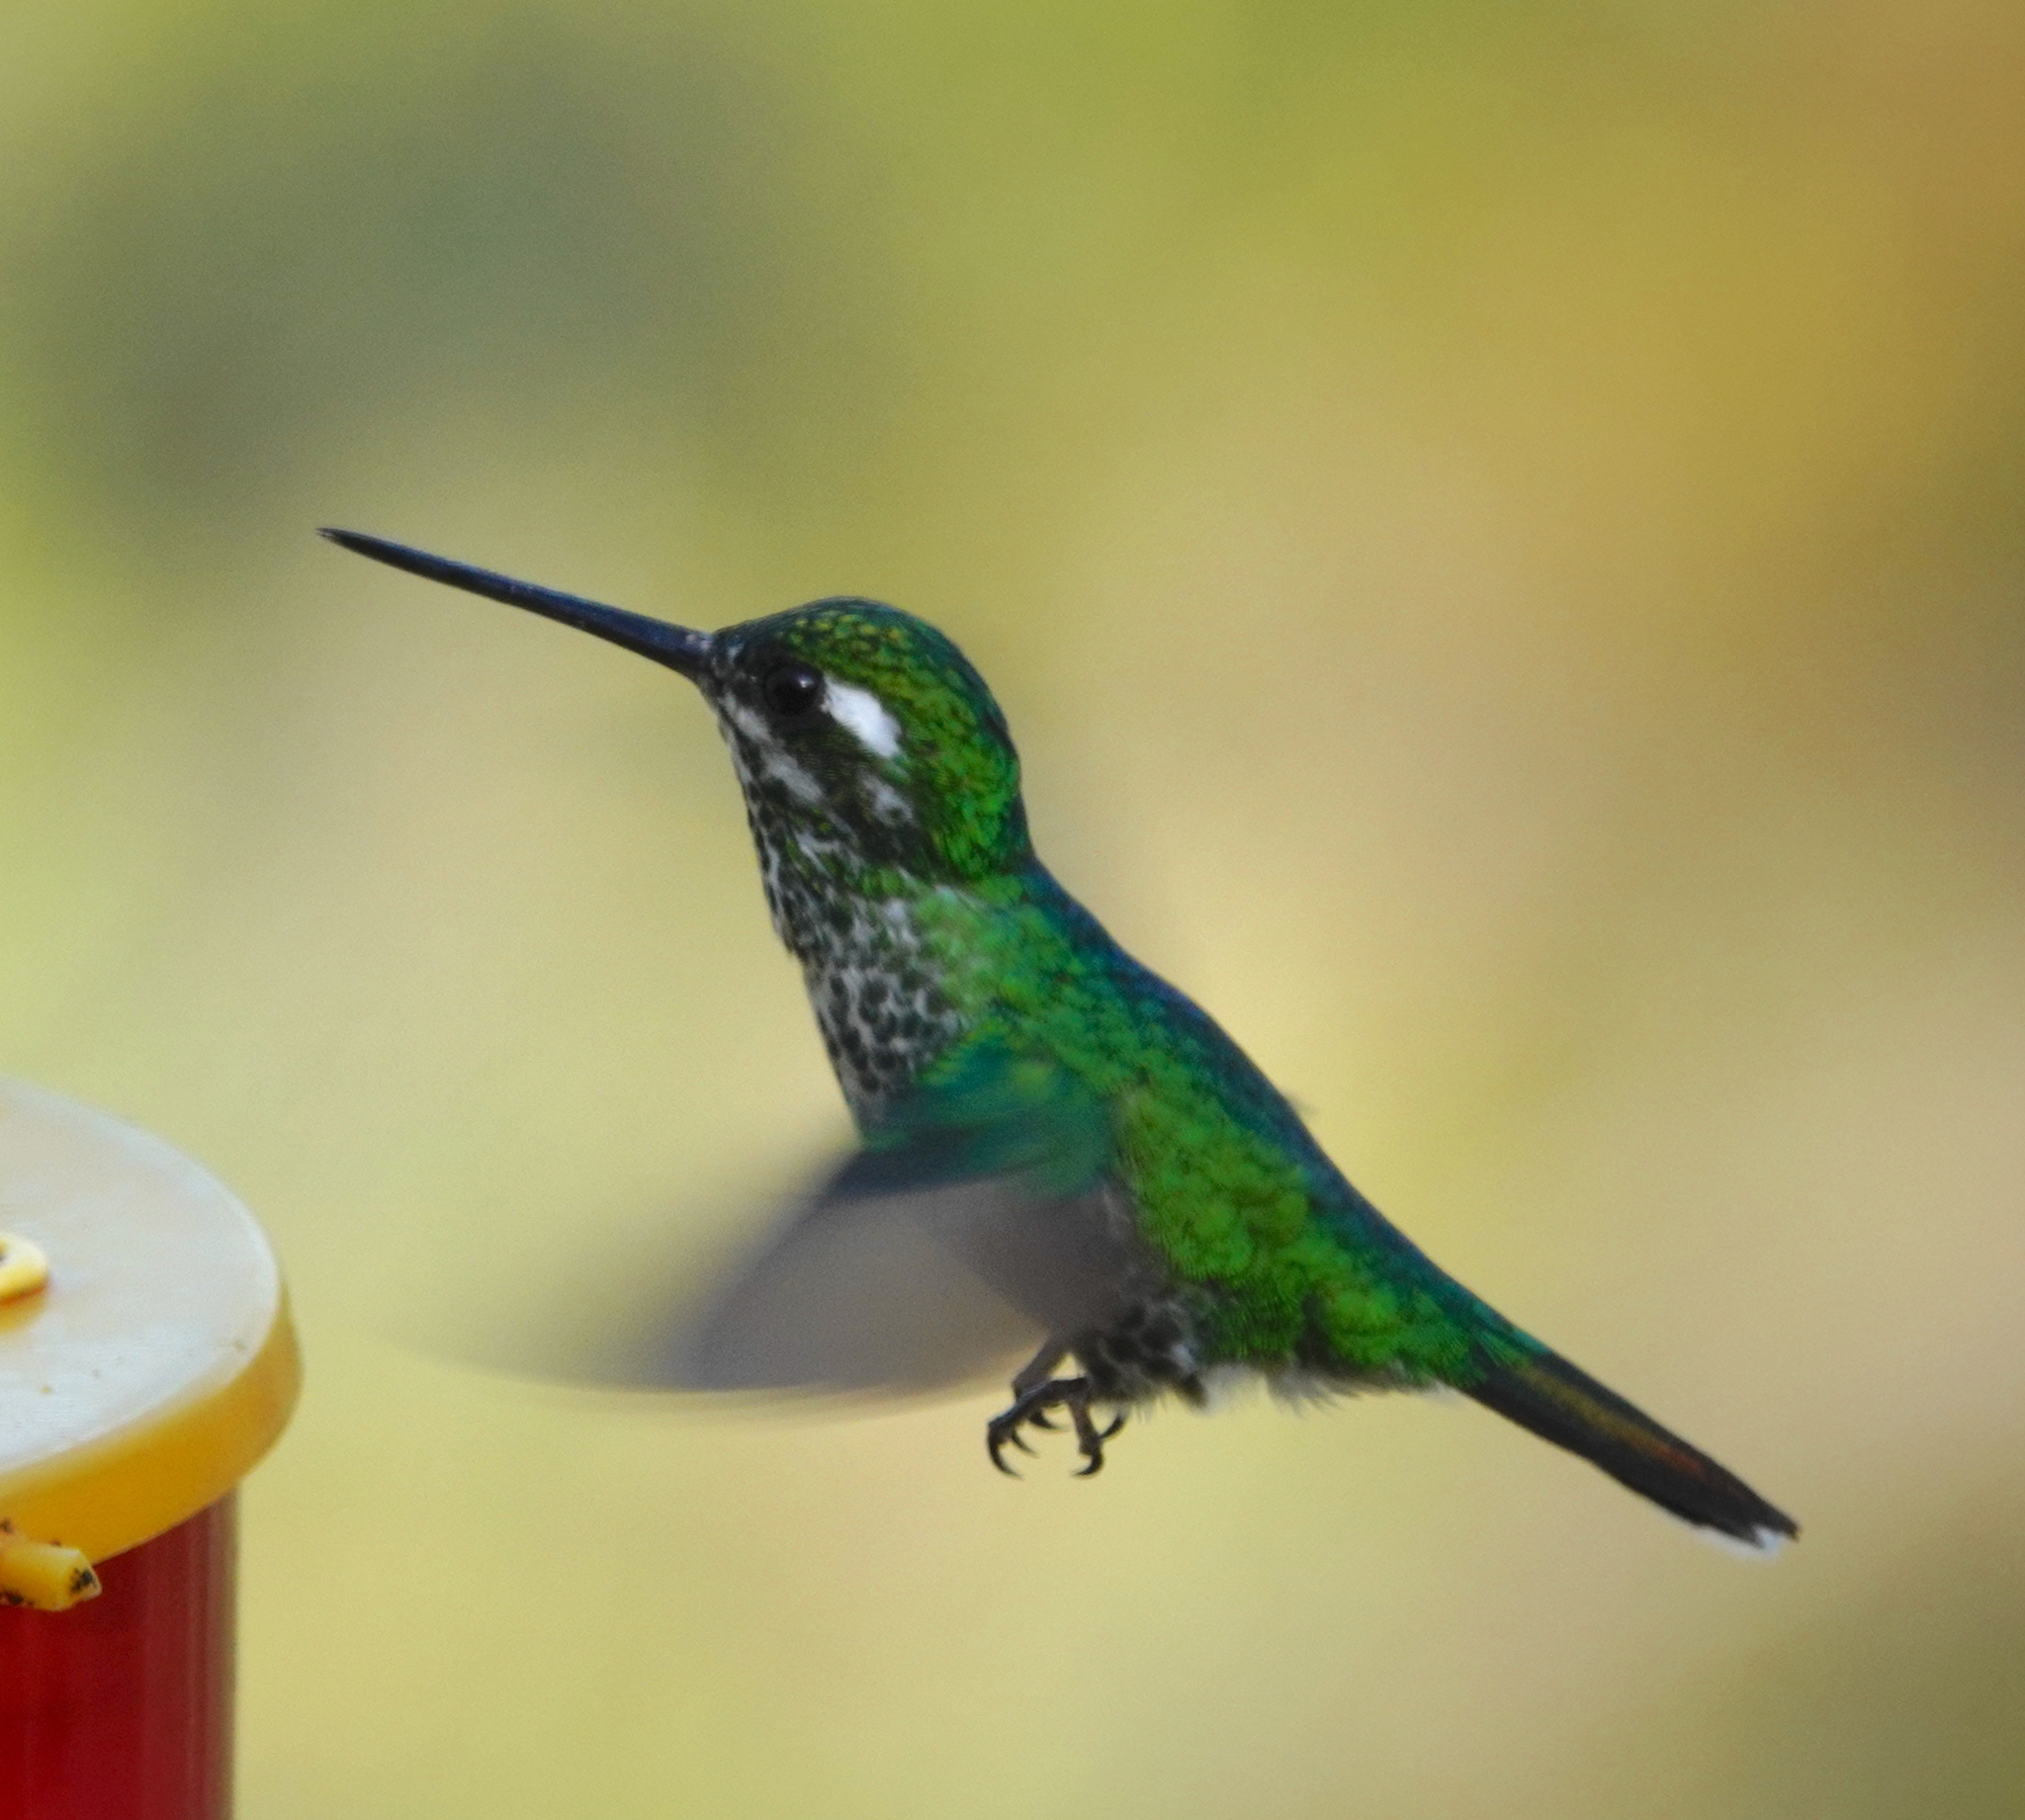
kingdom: Animalia
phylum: Chordata
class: Aves
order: Apodiformes
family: Trochilidae
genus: Urosticte
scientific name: Urosticte benjamini
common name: Purple-bibbed whitetip
